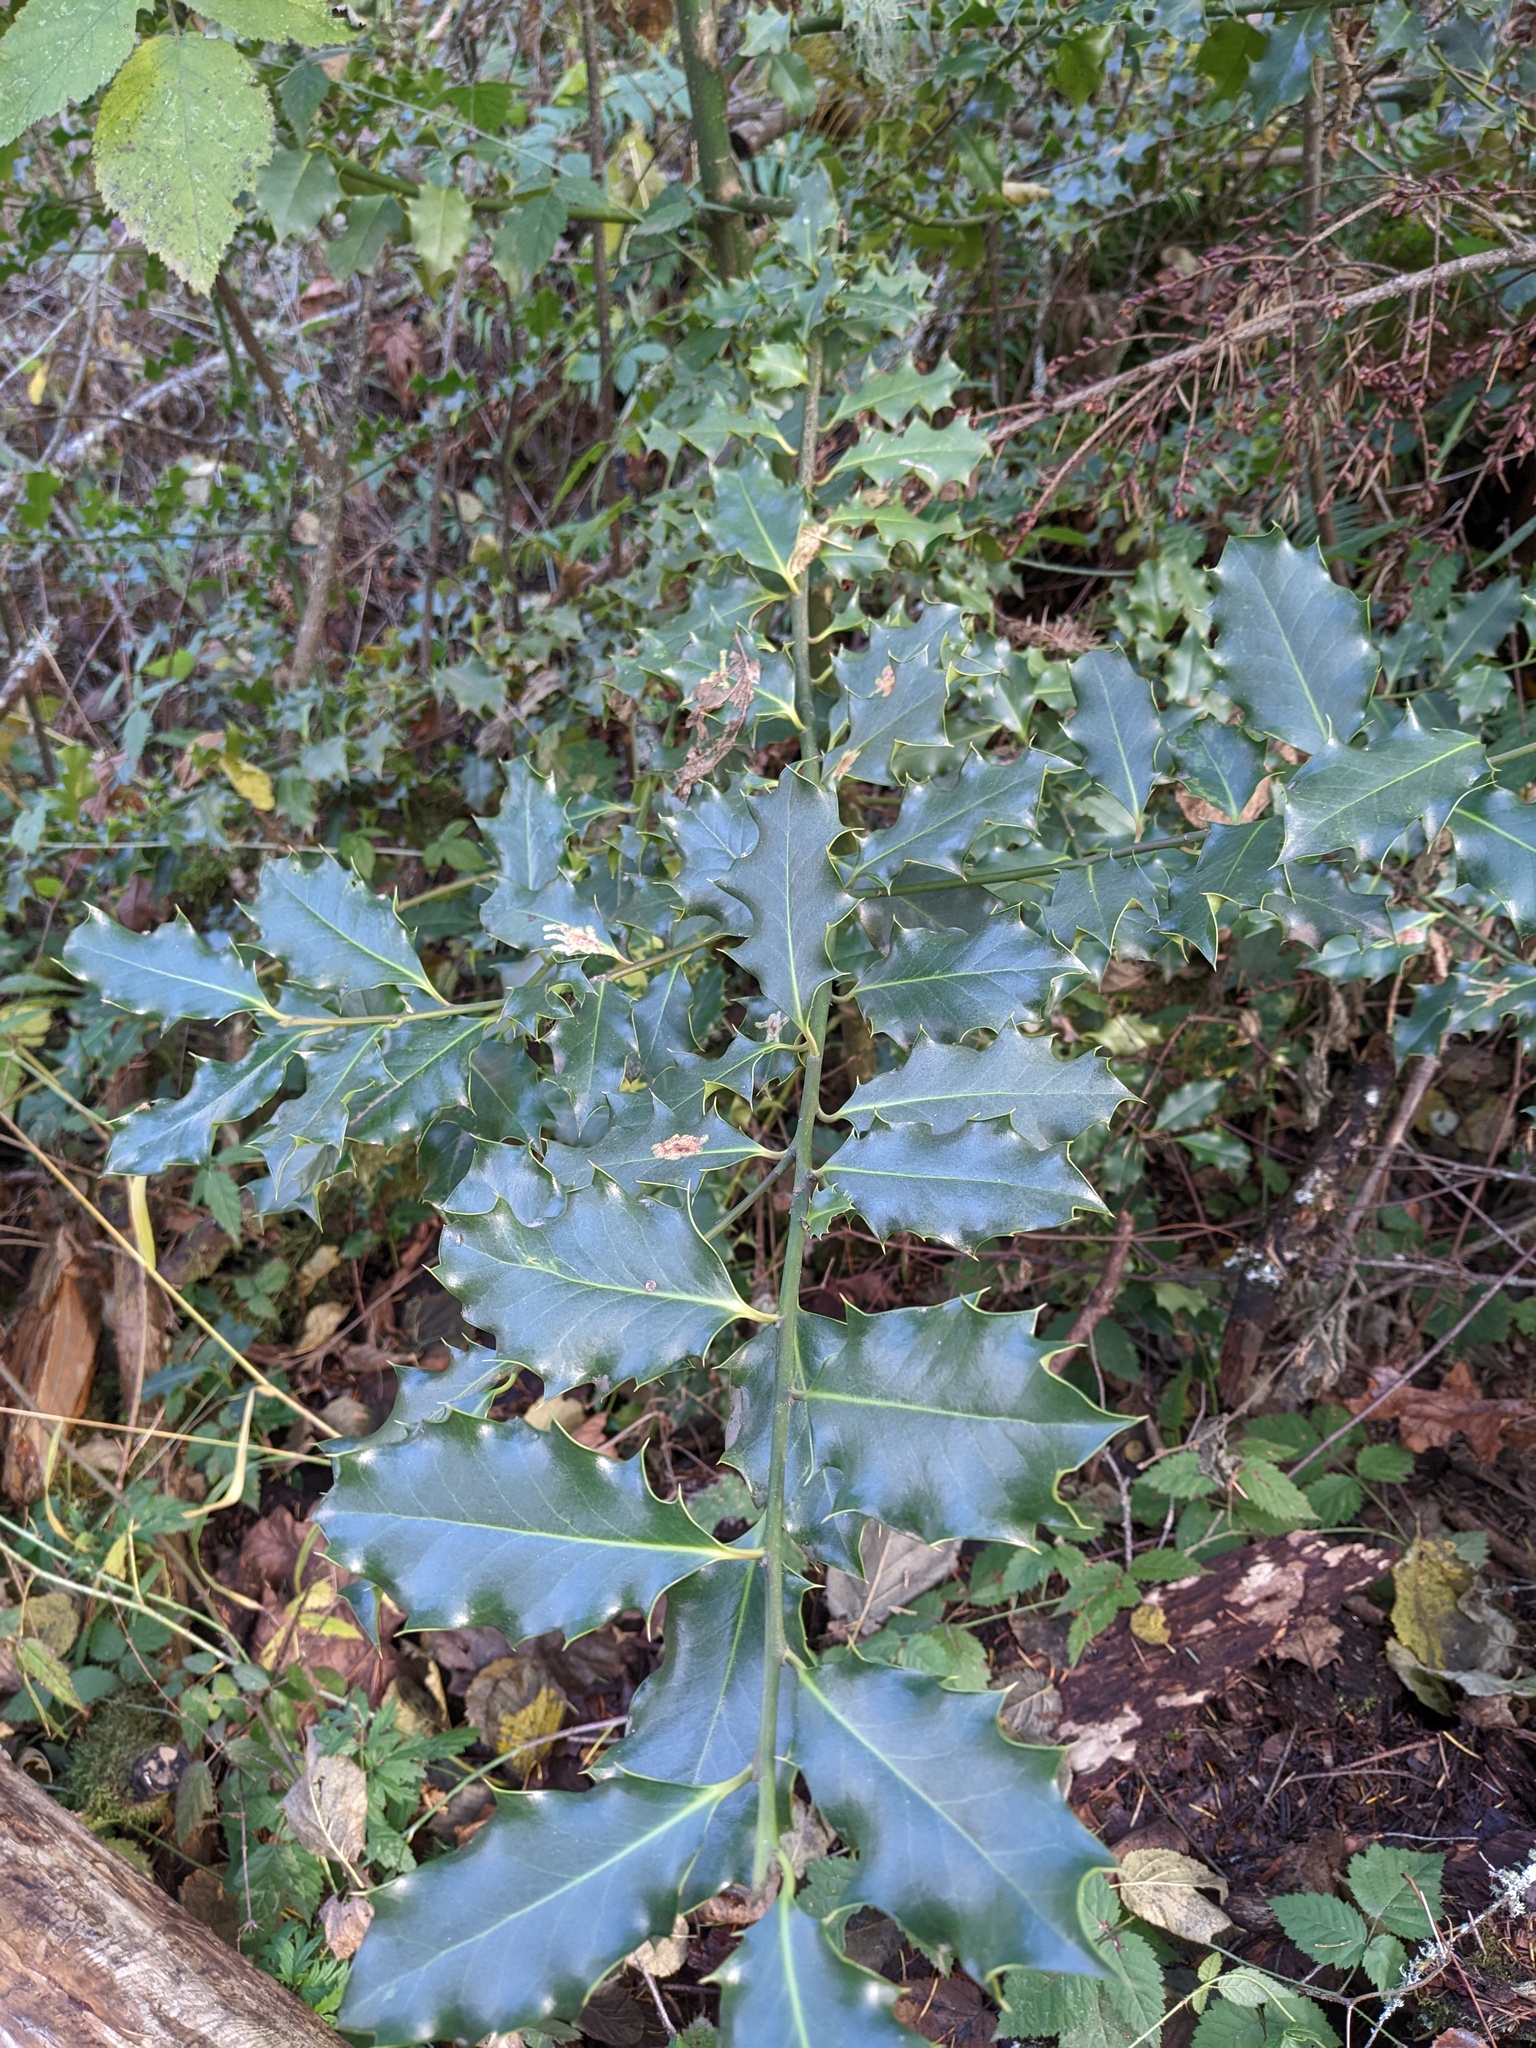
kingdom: Plantae
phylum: Tracheophyta
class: Magnoliopsida
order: Aquifoliales
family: Aquifoliaceae
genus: Ilex
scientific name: Ilex aquifolium
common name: English holly
